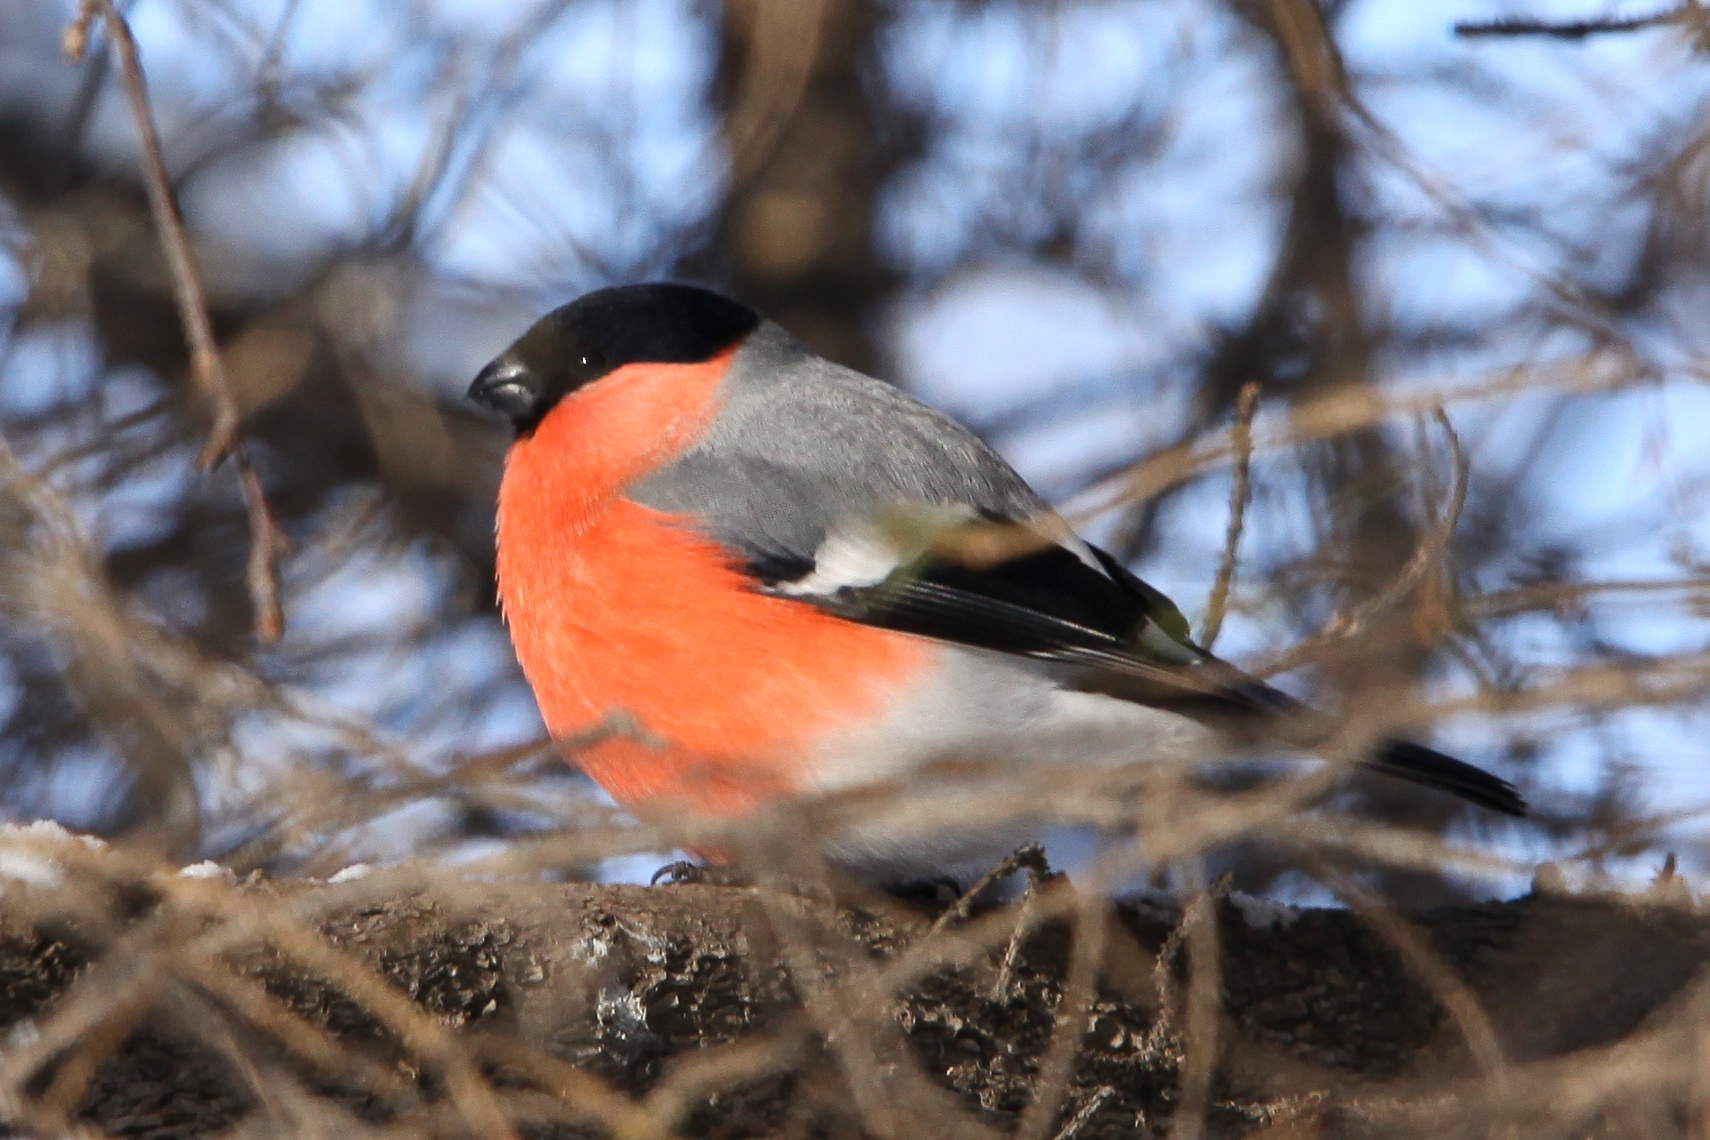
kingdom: Animalia
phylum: Chordata
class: Aves
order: Passeriformes
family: Fringillidae
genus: Pyrrhula
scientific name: Pyrrhula pyrrhula
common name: Eurasian bullfinch
